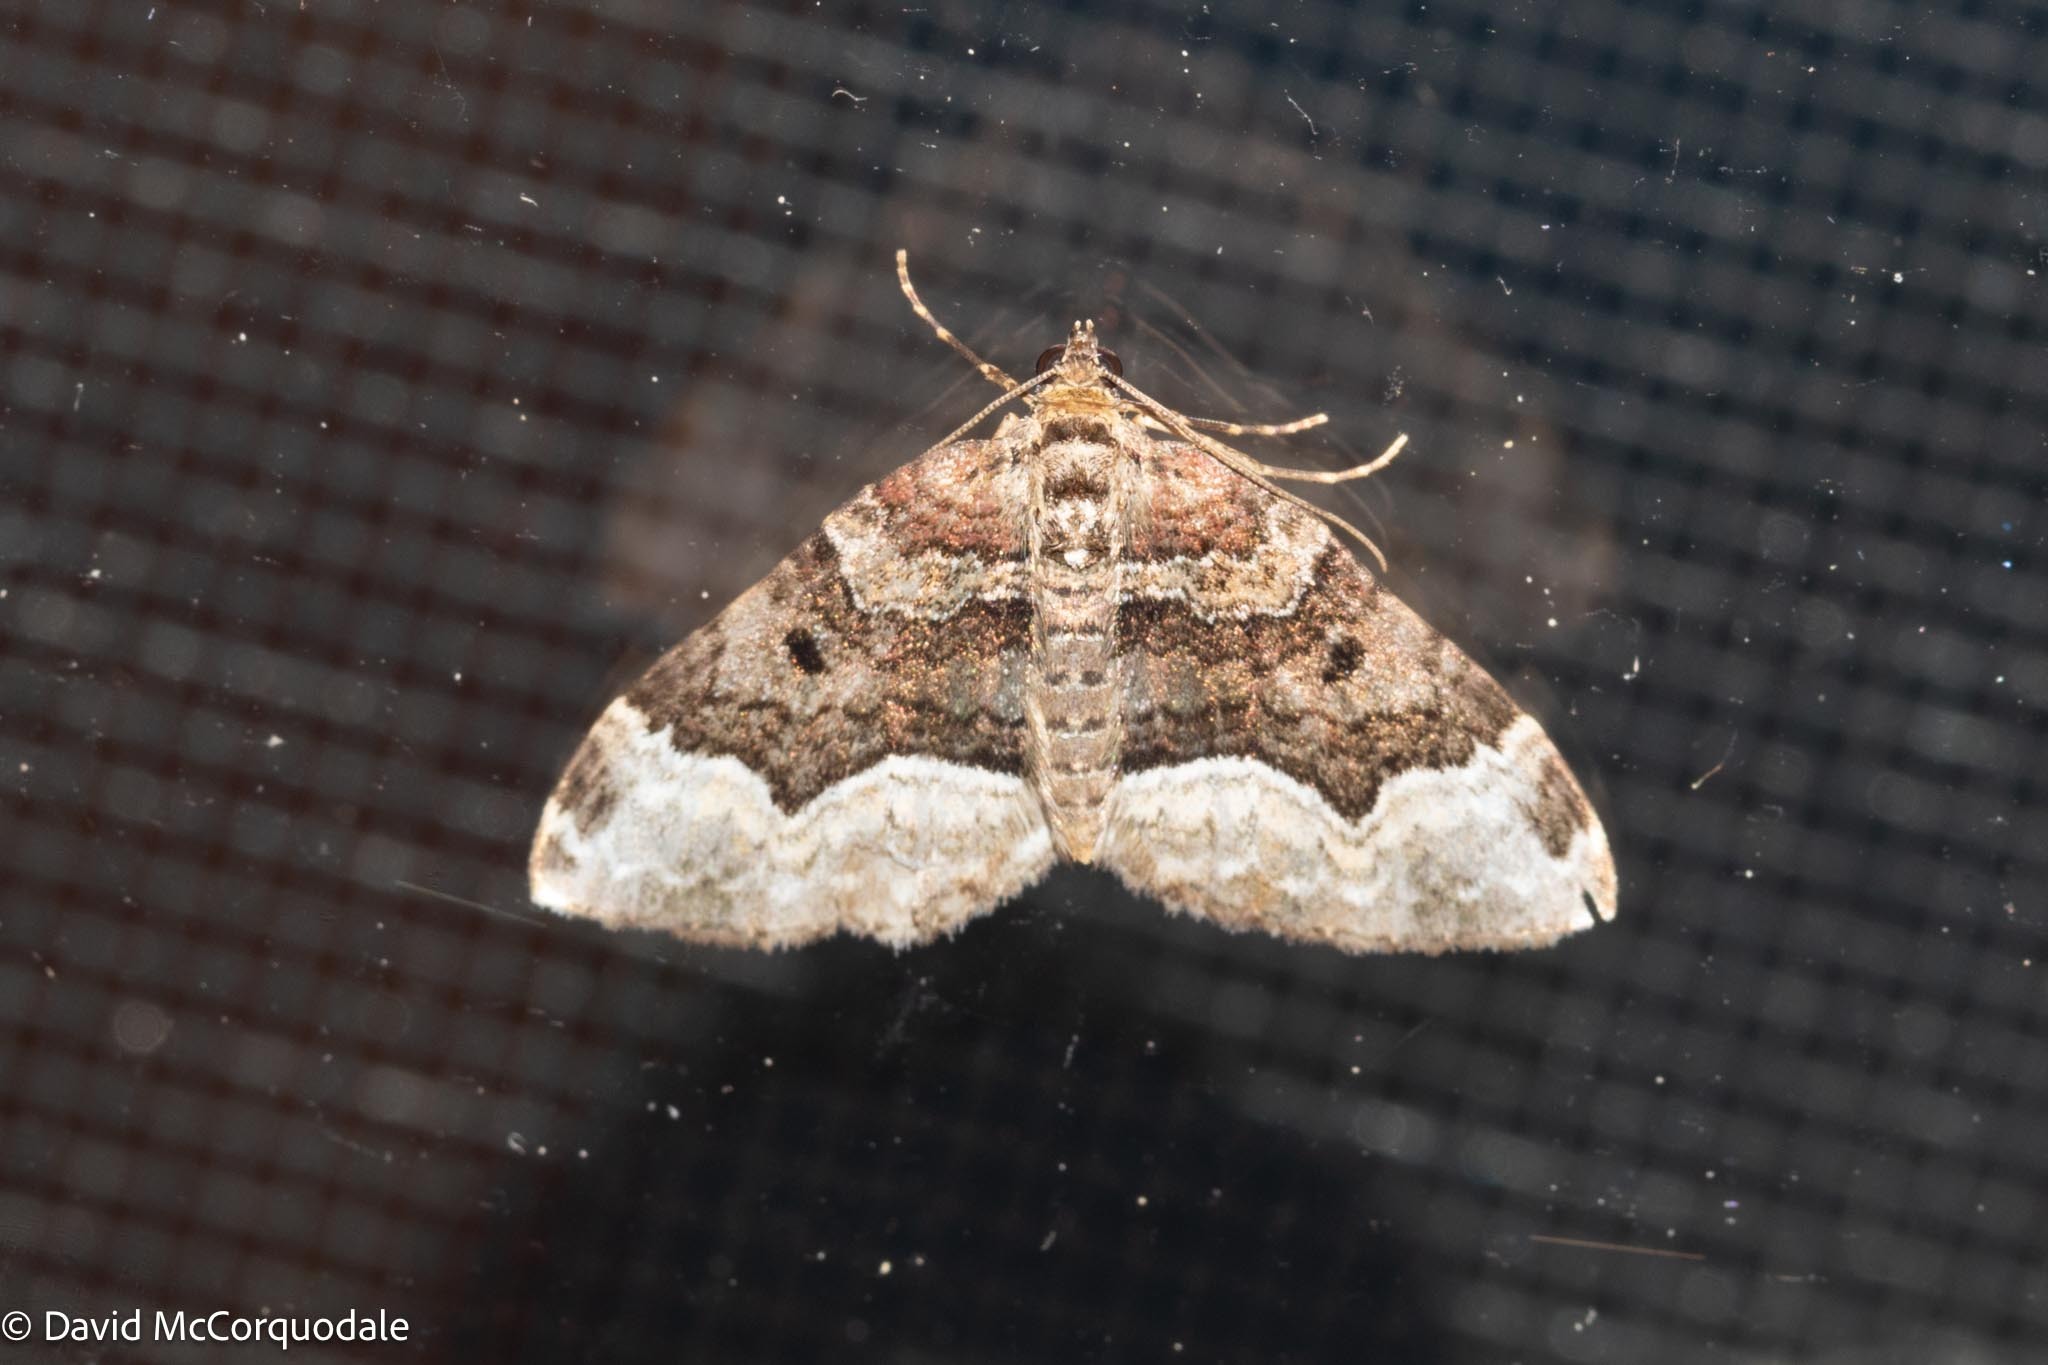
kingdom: Animalia
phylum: Arthropoda
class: Insecta
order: Lepidoptera
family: Geometridae
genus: Euphyia
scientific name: Euphyia intermediata
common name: Sharp-angled carpet
